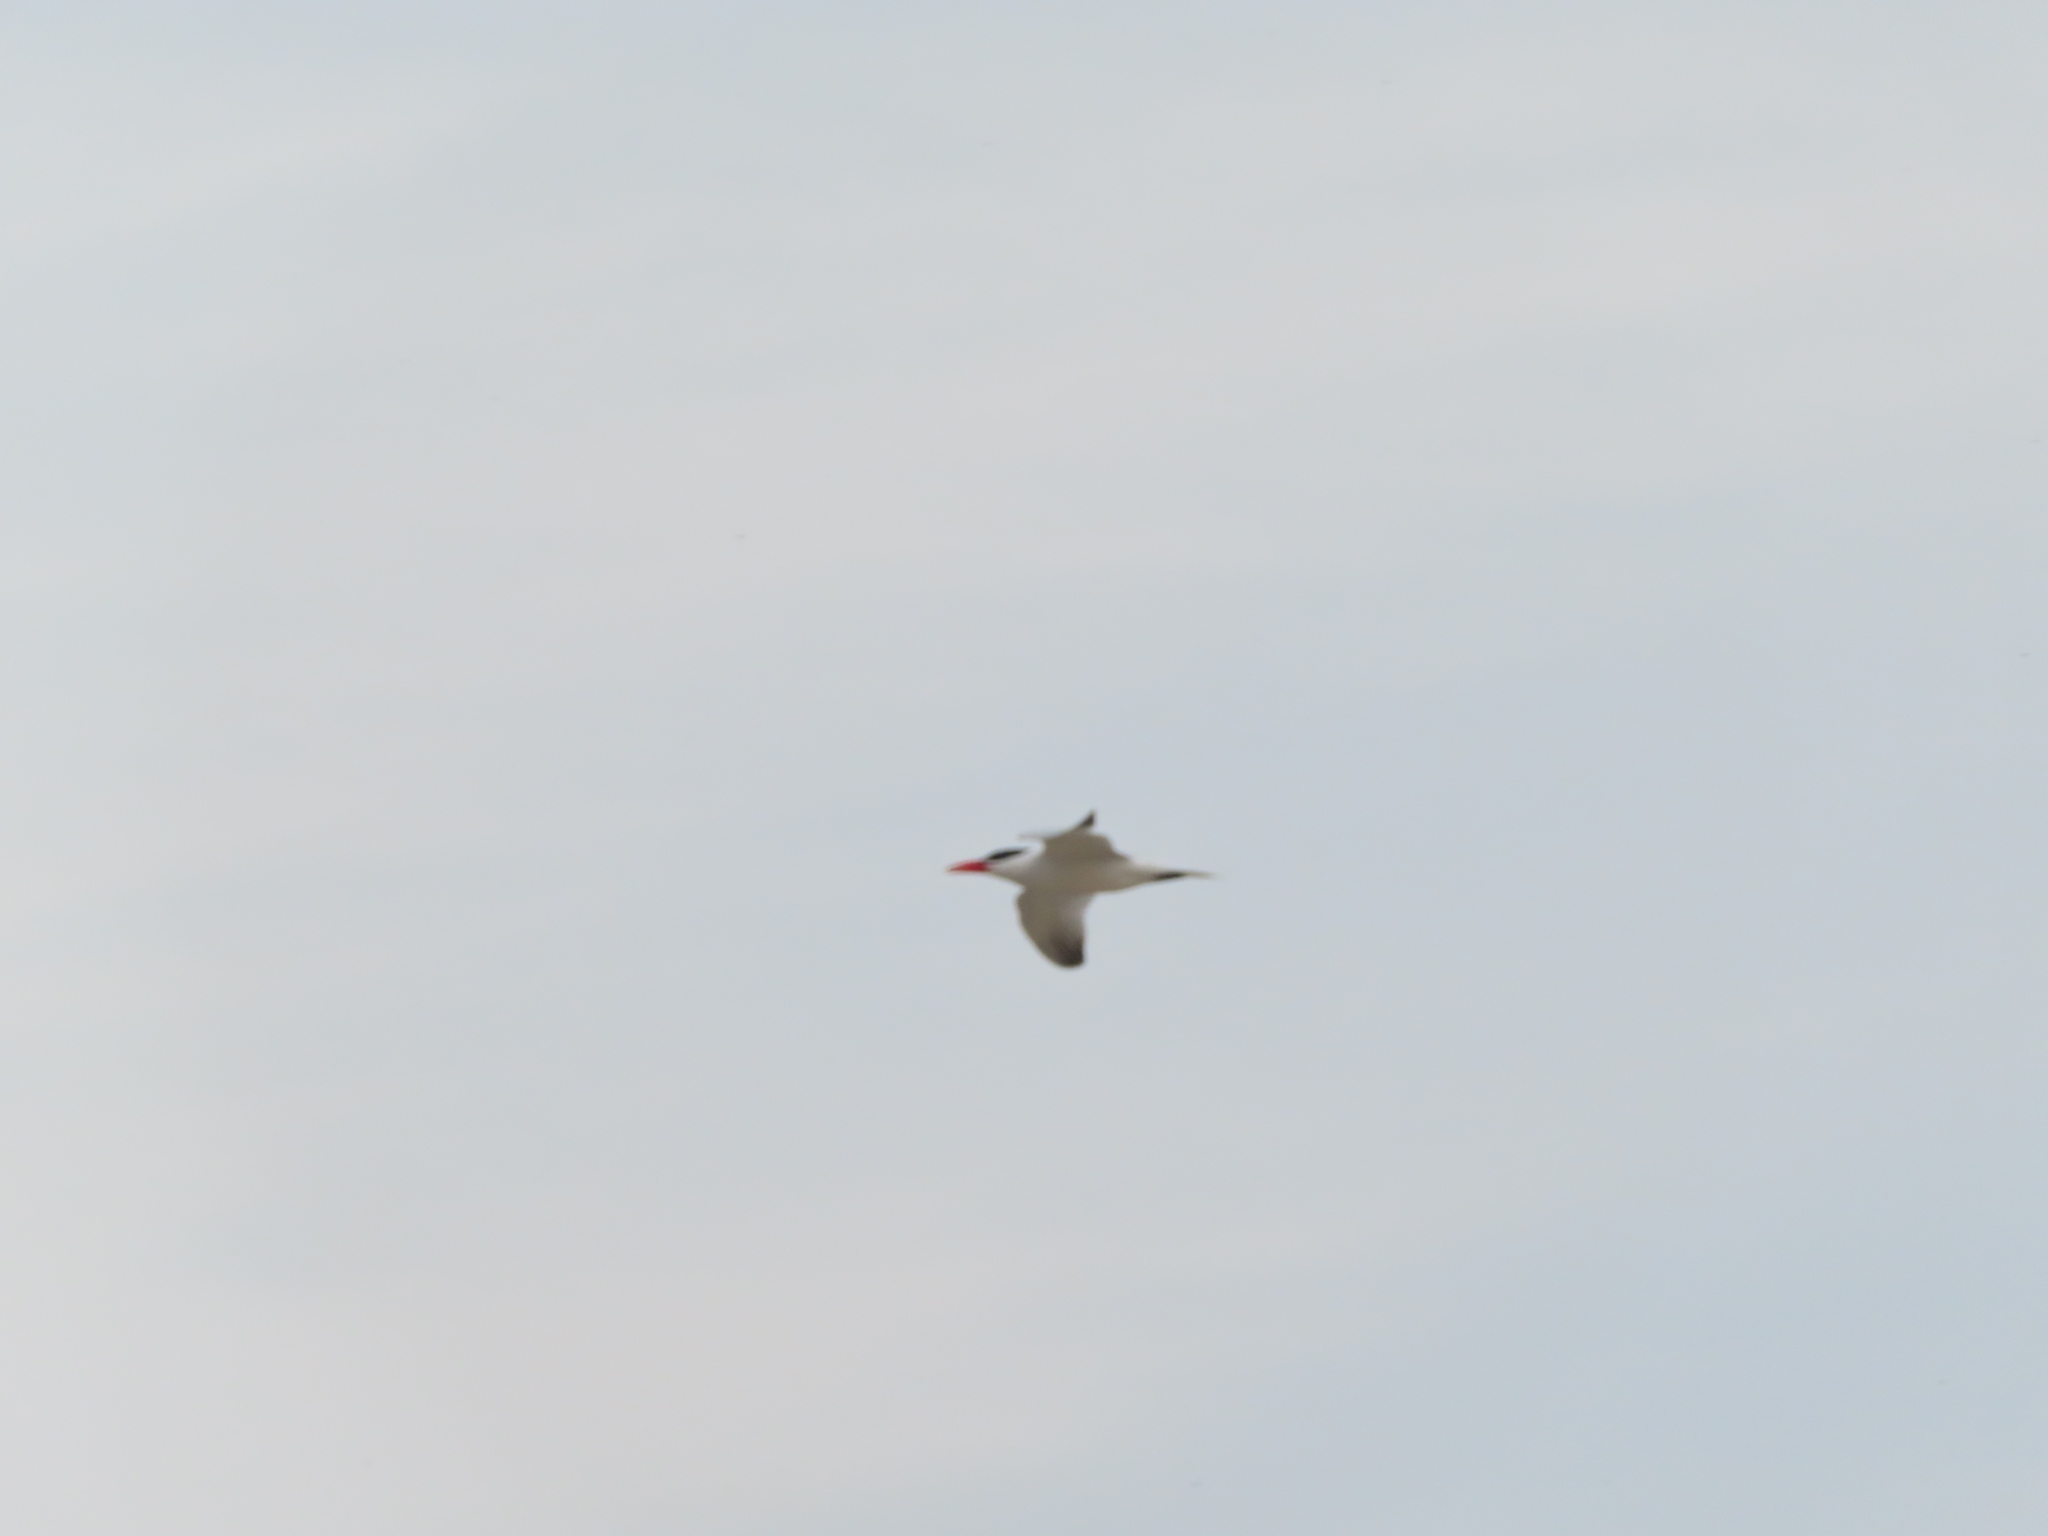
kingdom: Animalia
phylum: Chordata
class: Aves
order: Charadriiformes
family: Laridae
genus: Hydroprogne
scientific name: Hydroprogne caspia
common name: Caspian tern
